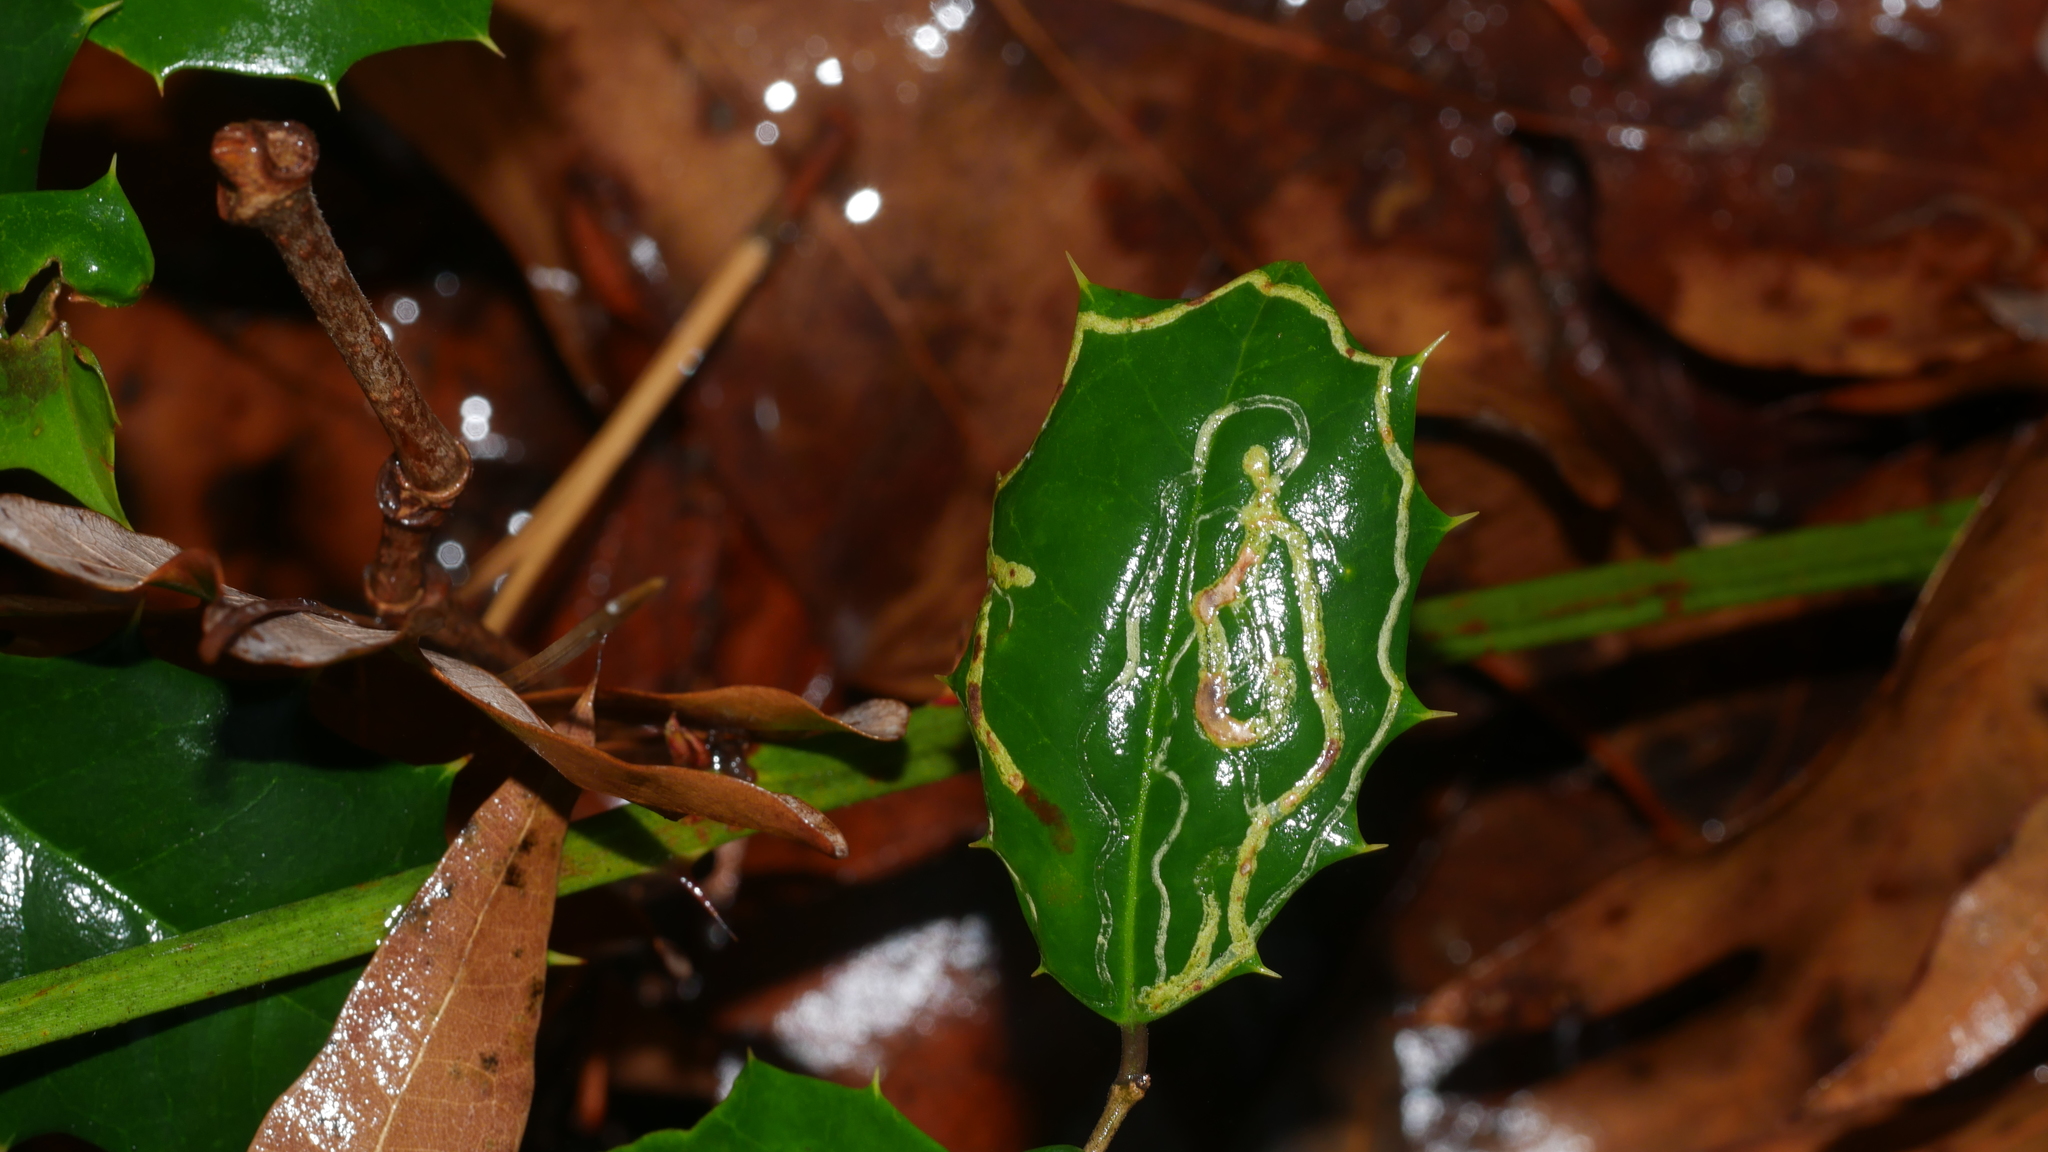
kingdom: Animalia
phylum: Arthropoda
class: Insecta
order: Diptera
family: Agromyzidae
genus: Phytomyza
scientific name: Phytomyza opacae
